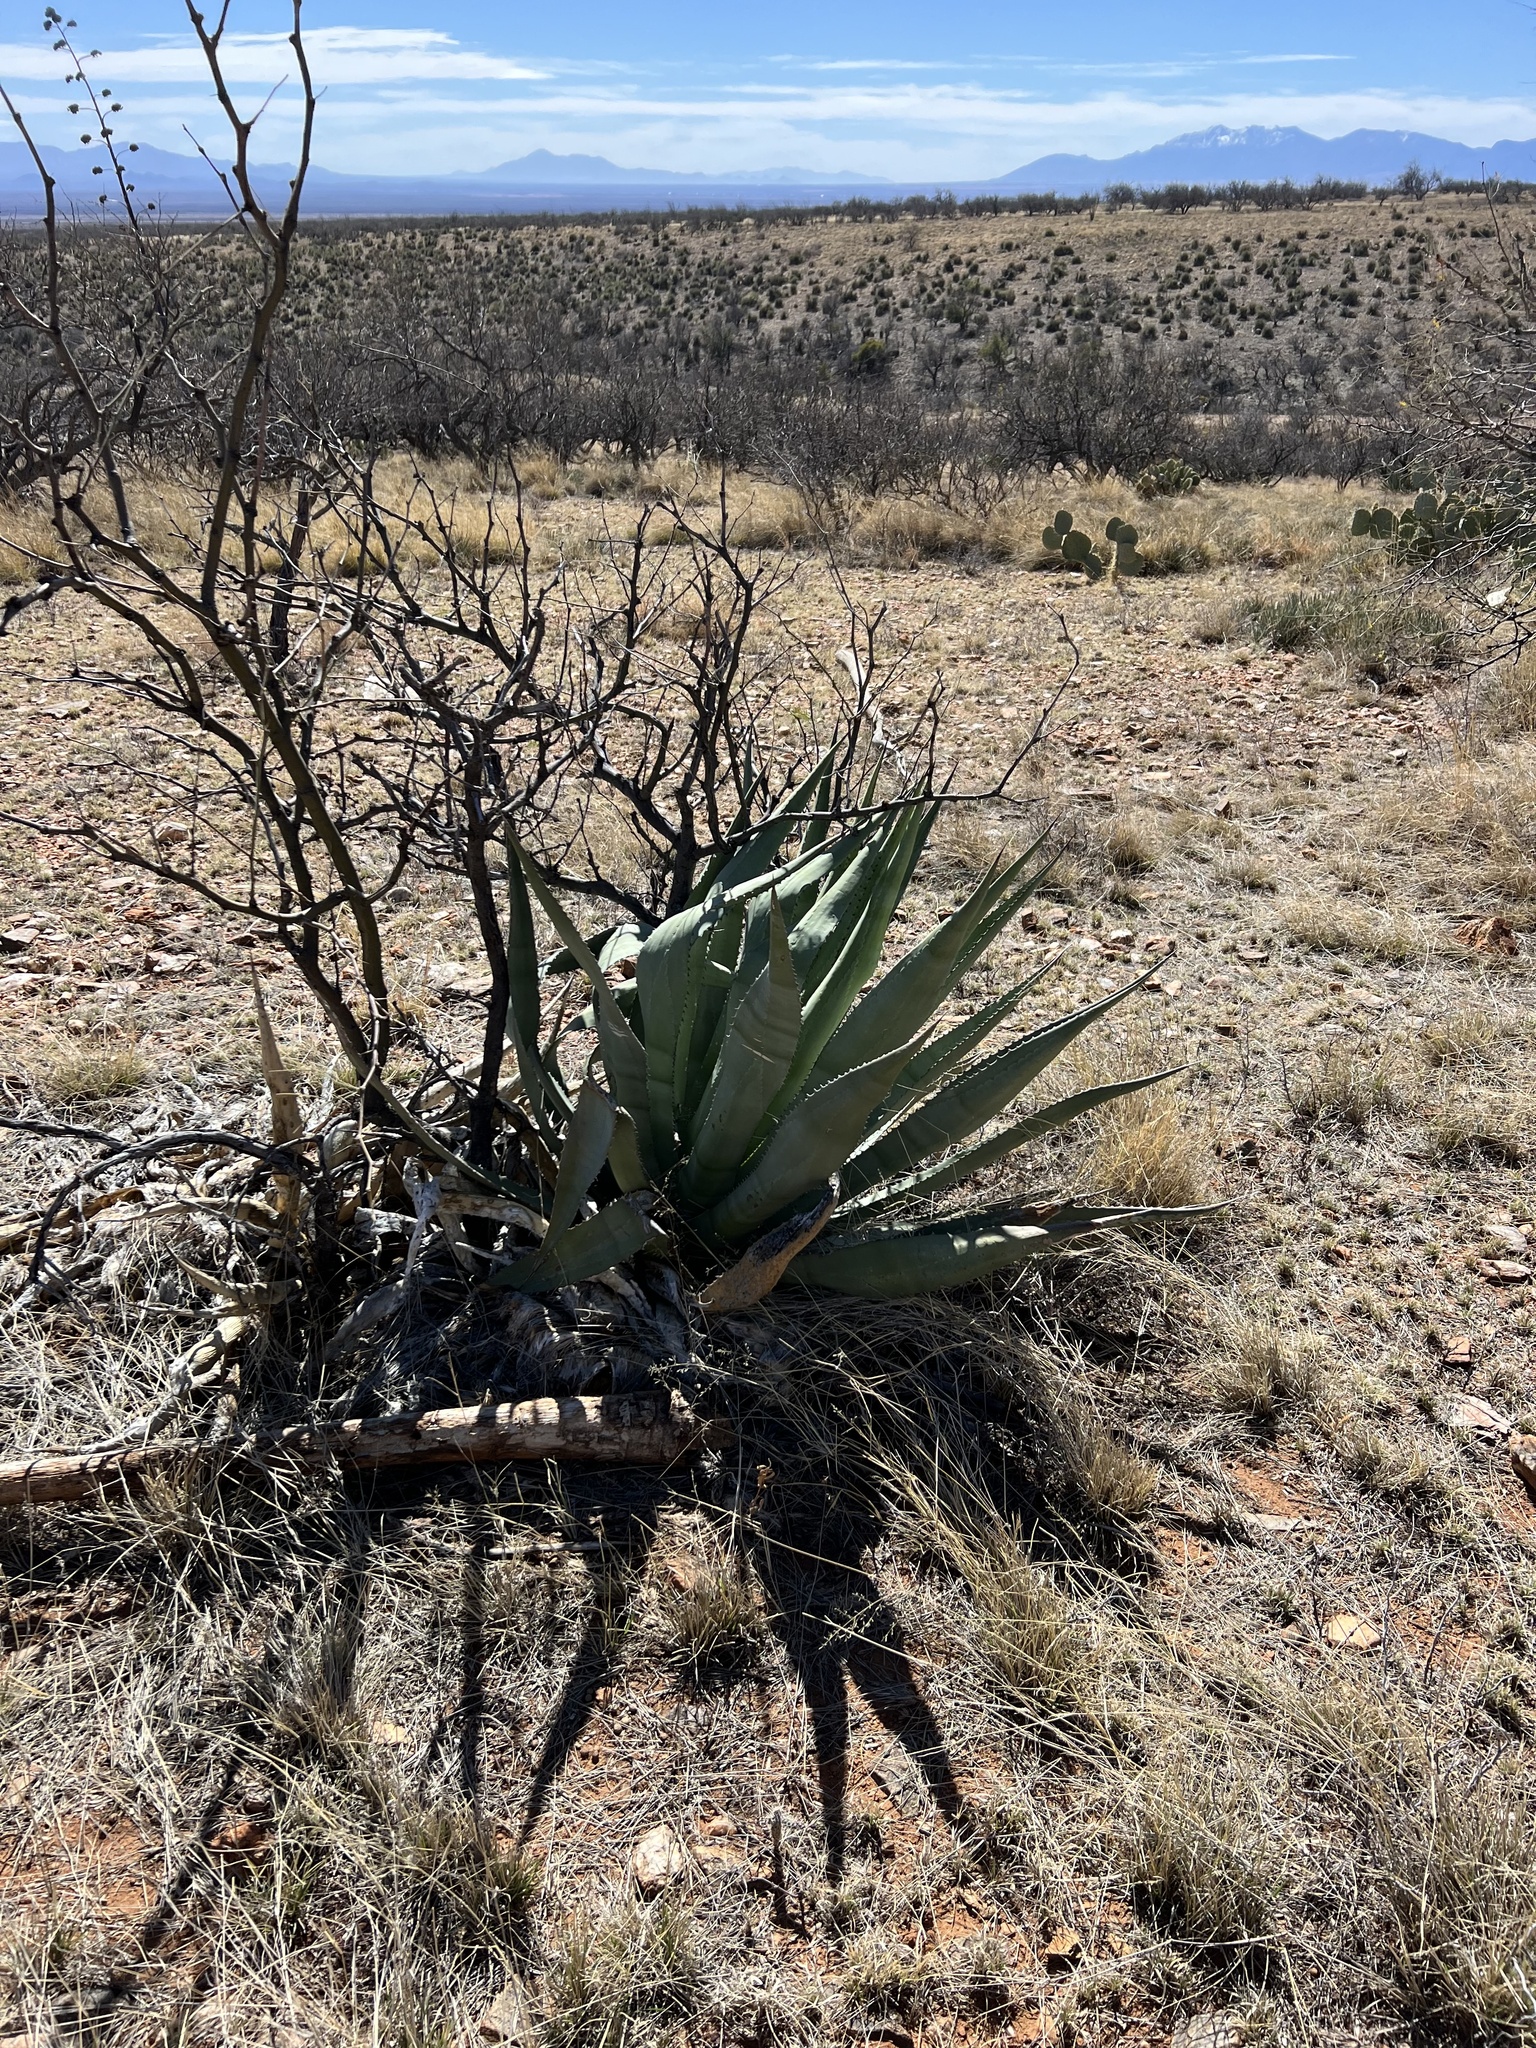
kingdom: Plantae
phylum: Tracheophyta
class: Liliopsida
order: Asparagales
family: Asparagaceae
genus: Agave
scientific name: Agave palmeri
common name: Palmer agave
